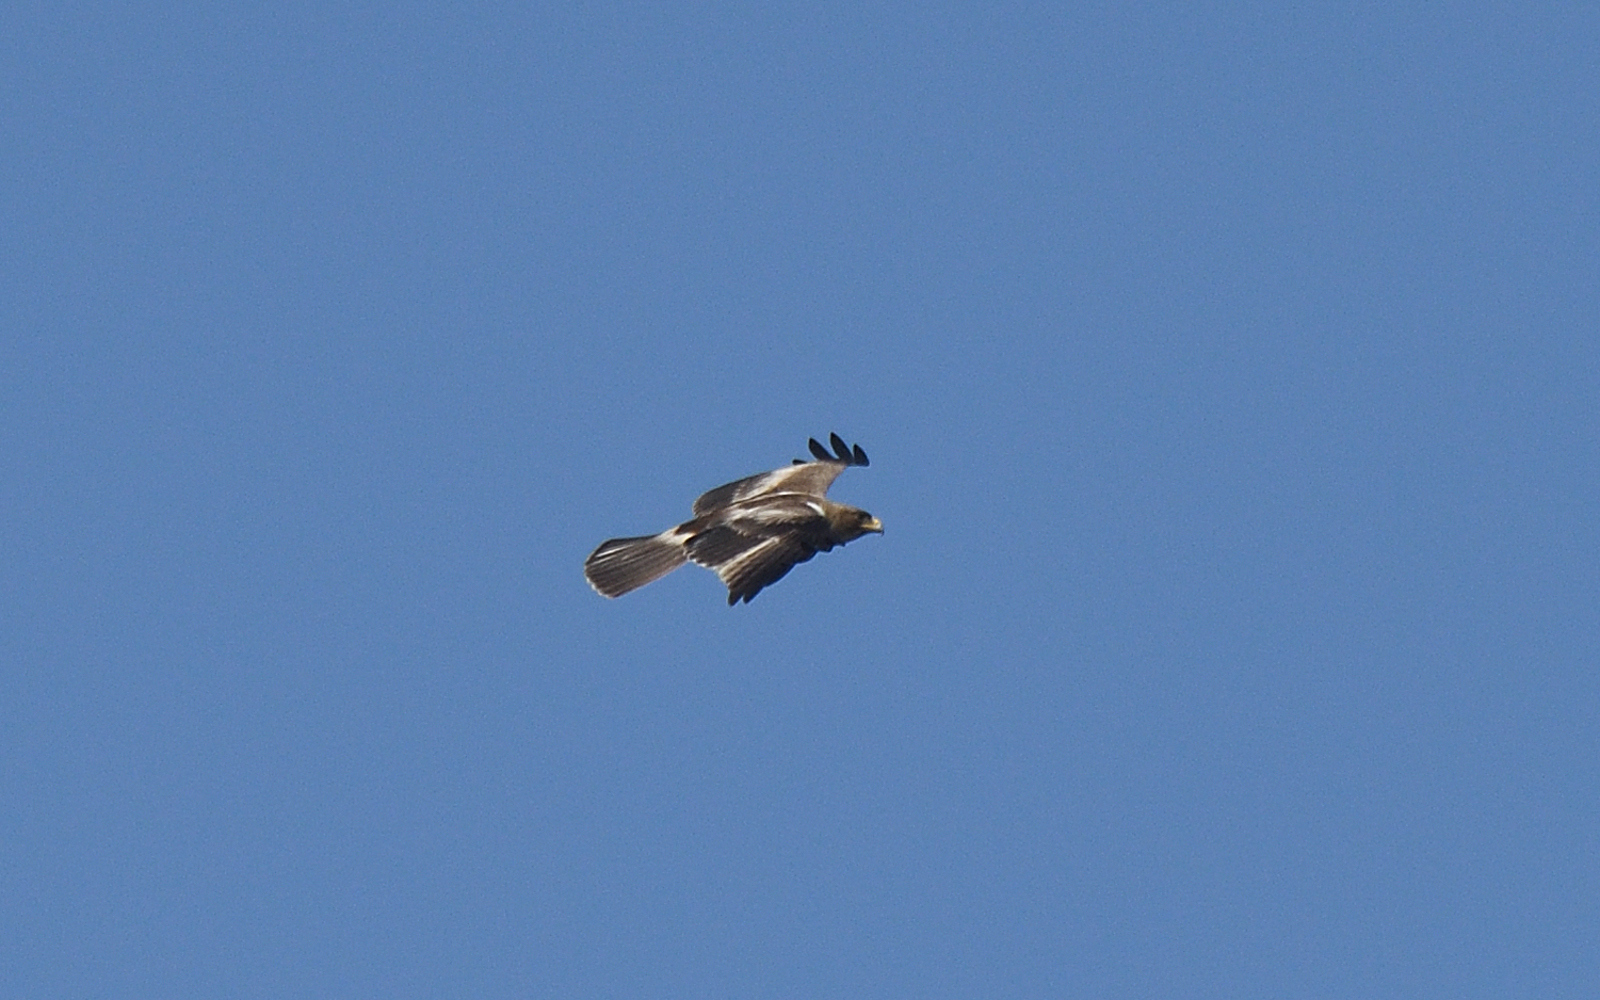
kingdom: Animalia
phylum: Chordata
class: Aves
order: Accipitriformes
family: Accipitridae
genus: Hieraaetus
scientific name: Hieraaetus pennatus
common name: Booted eagle
